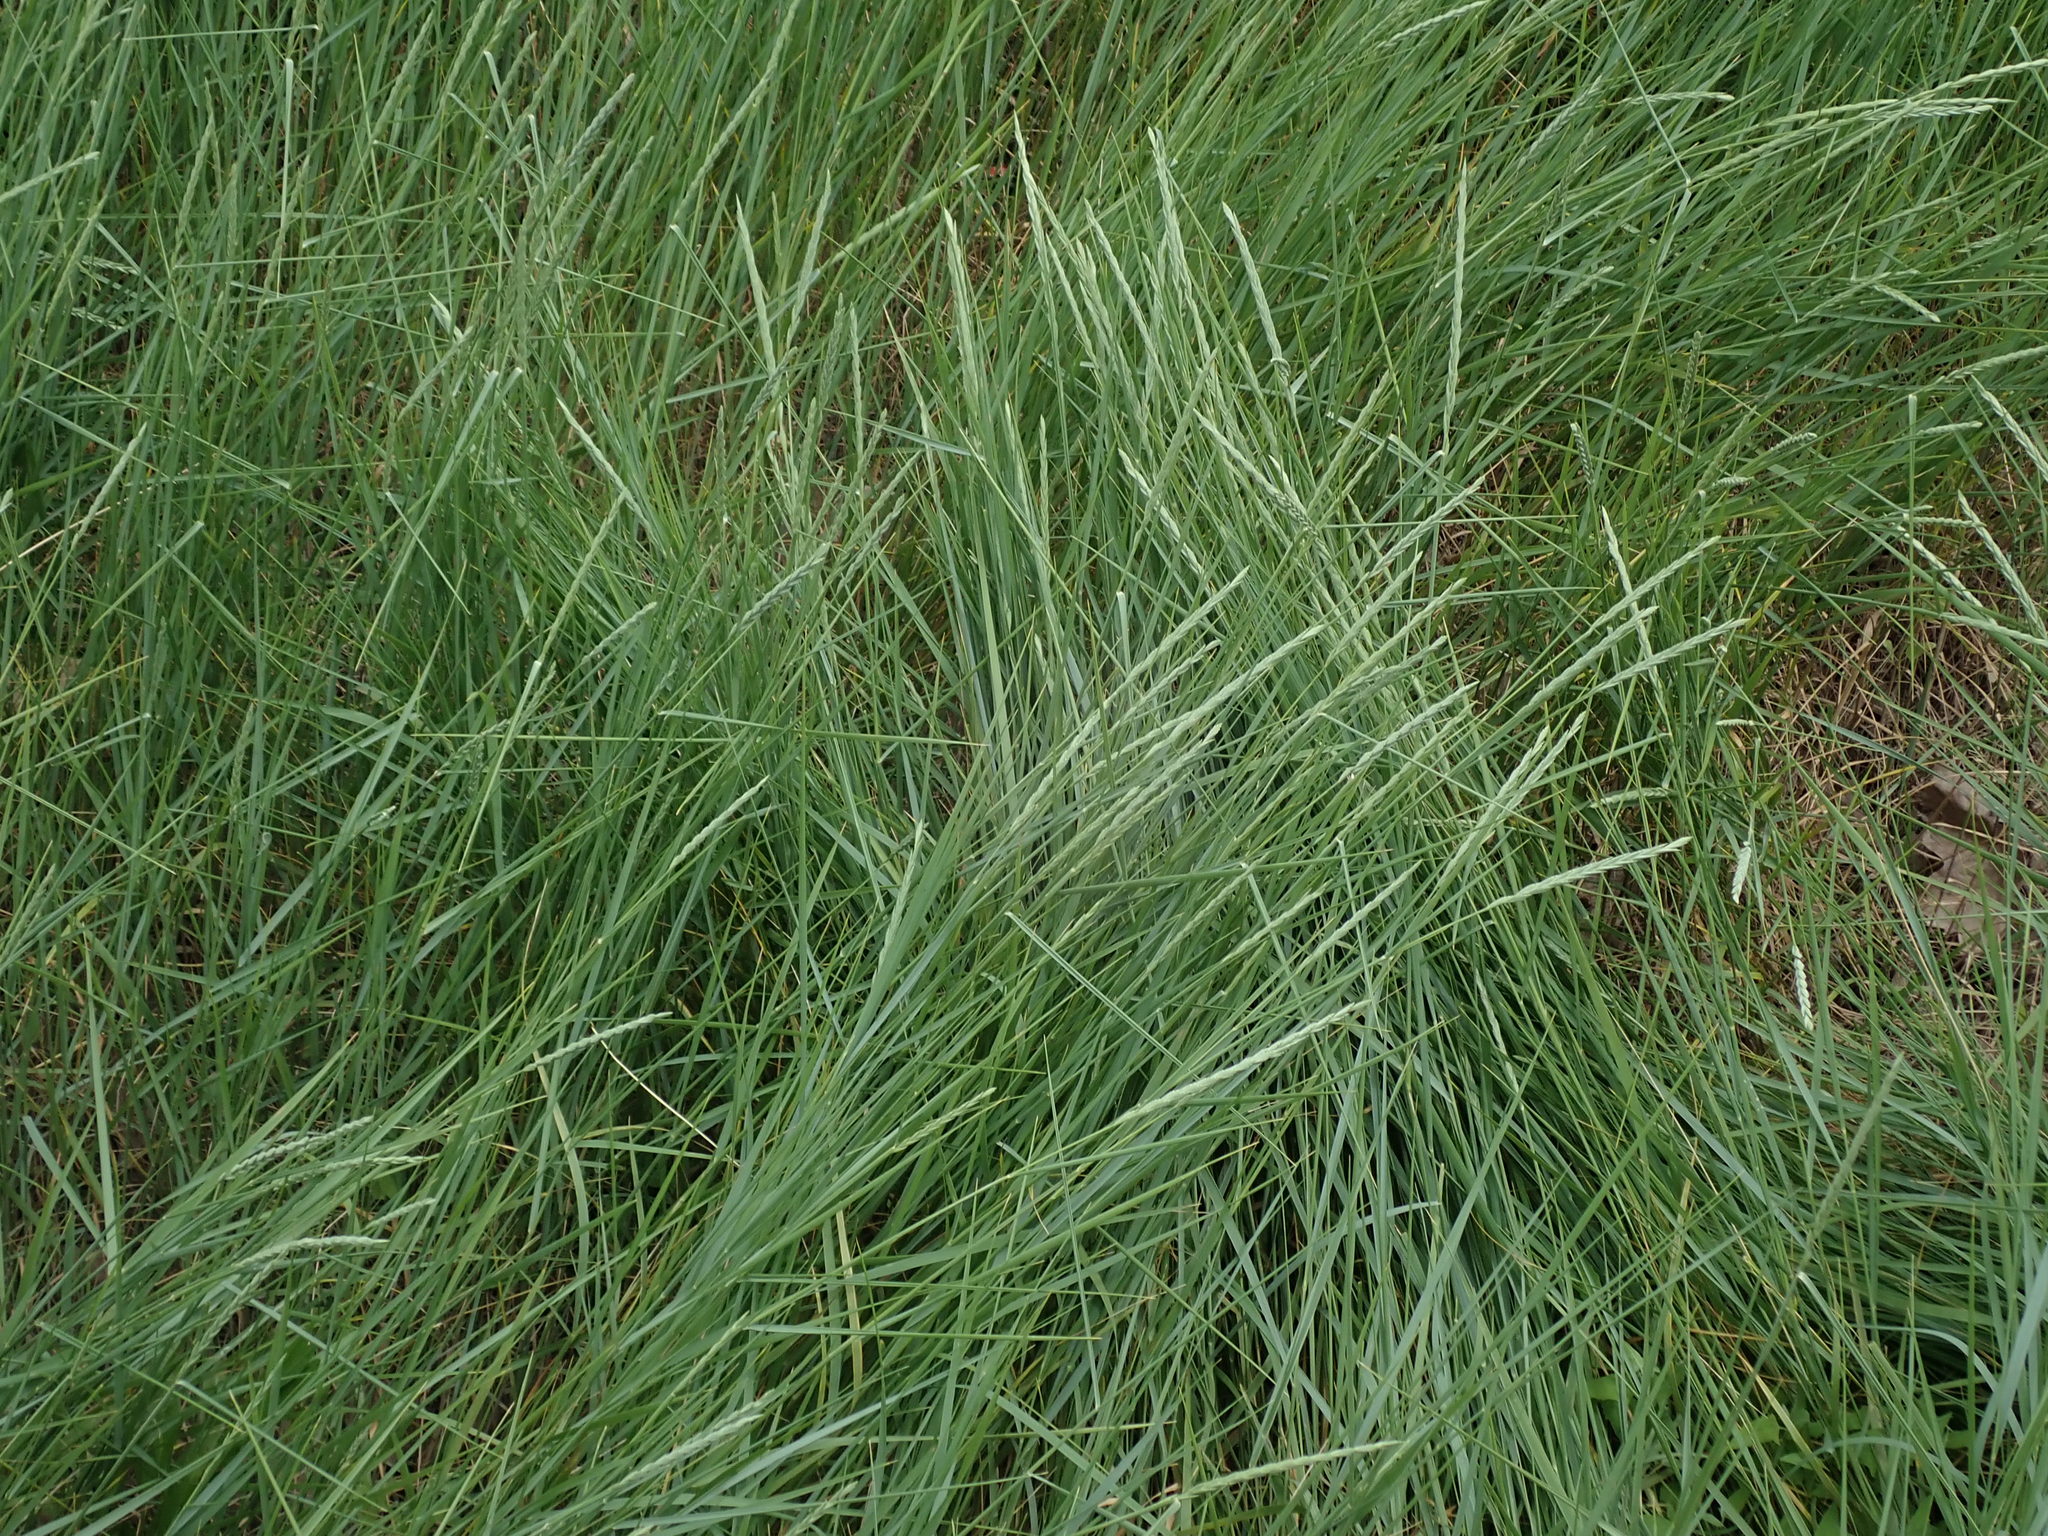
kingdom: Plantae
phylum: Tracheophyta
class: Liliopsida
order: Poales
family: Poaceae
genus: Elymus
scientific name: Elymus athericus
